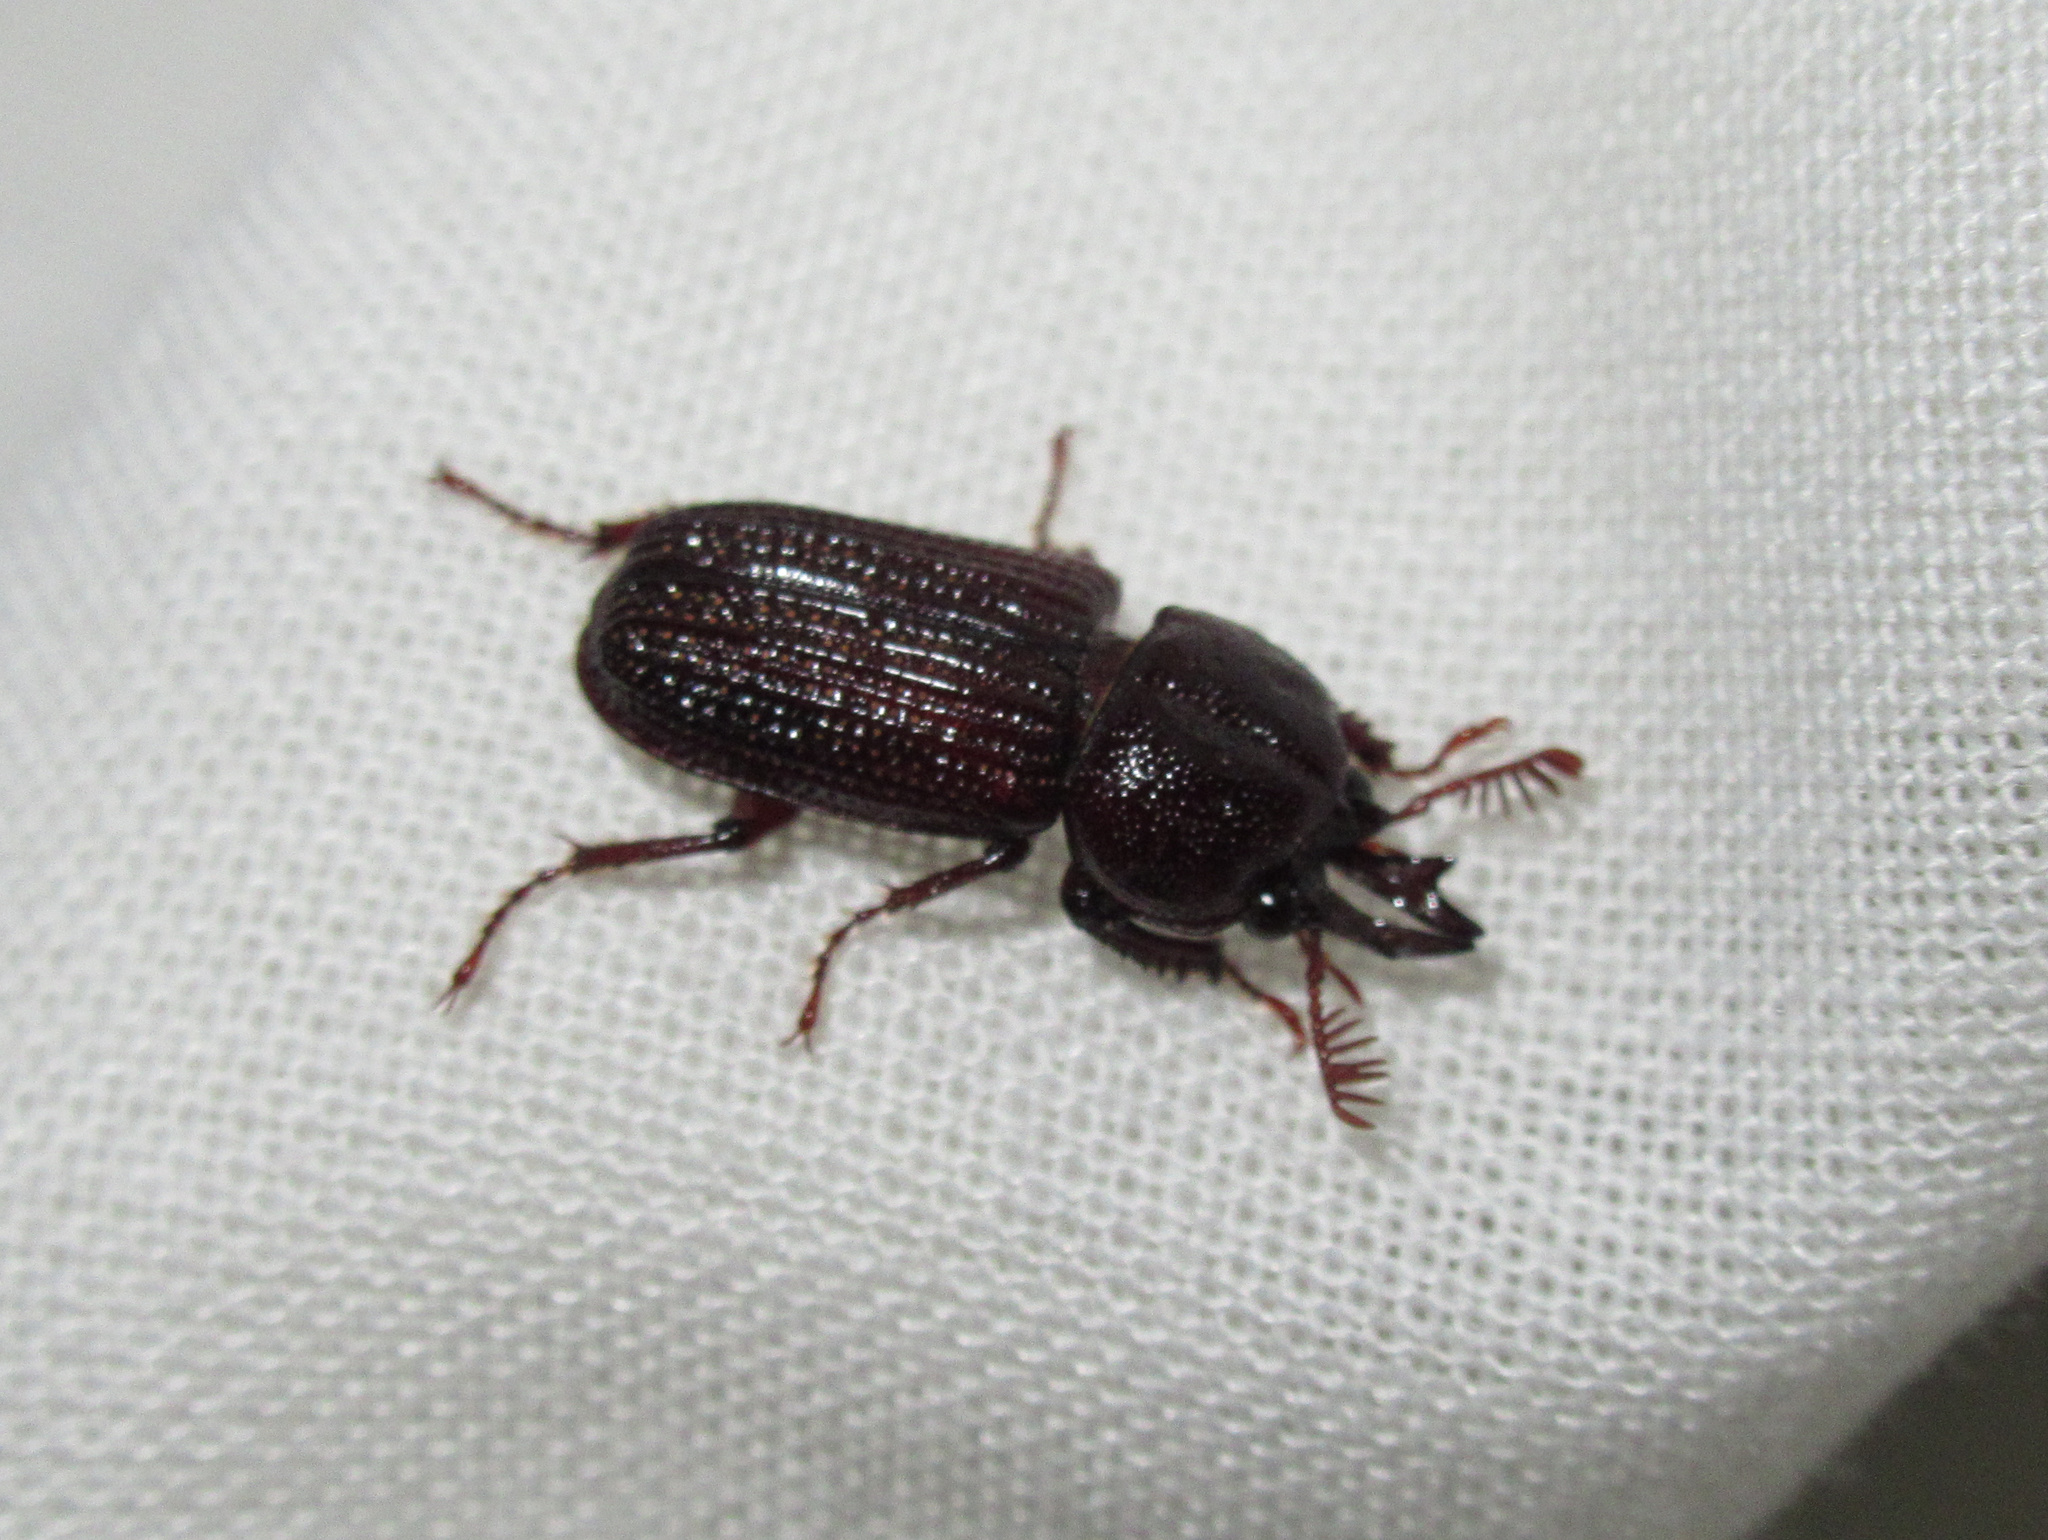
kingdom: Animalia
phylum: Arthropoda
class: Insecta
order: Coleoptera
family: Lucanidae
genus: Syndesus
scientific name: Syndesus cornutus
